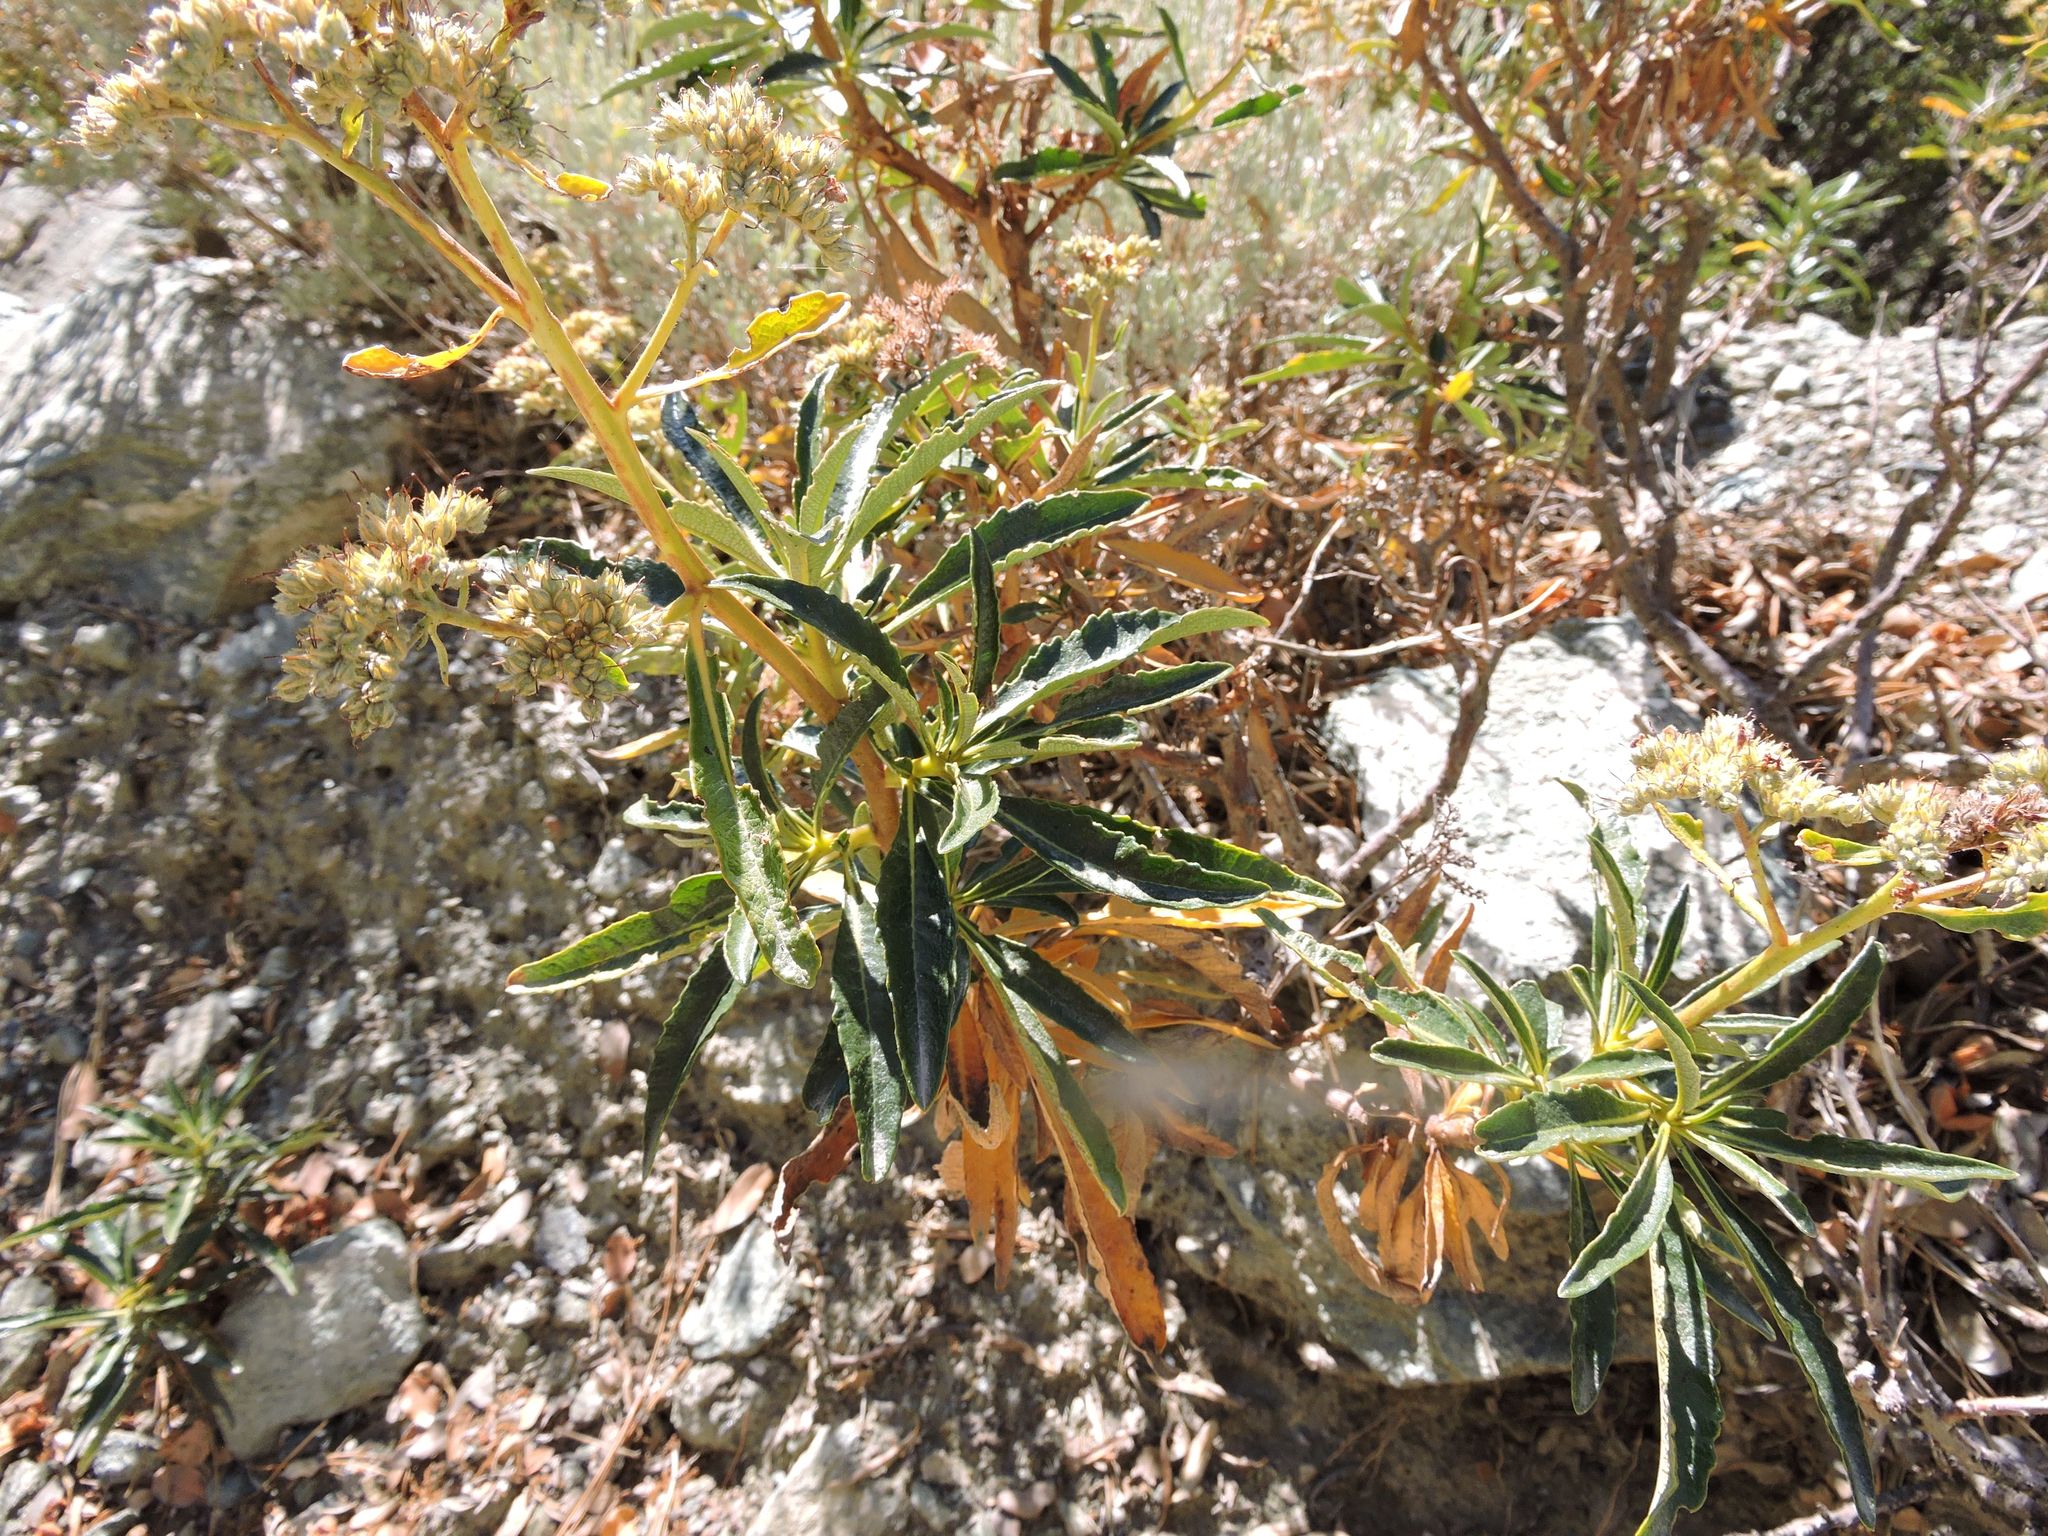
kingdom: Plantae
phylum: Tracheophyta
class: Magnoliopsida
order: Boraginales
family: Namaceae
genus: Eriodictyon
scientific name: Eriodictyon trichocalyx
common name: Hairy yerba-santa
